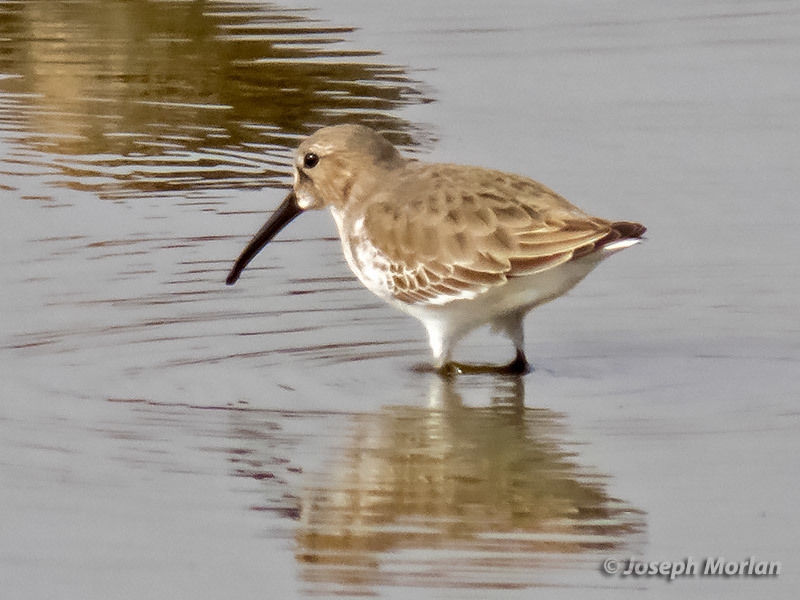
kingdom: Animalia
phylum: Chordata
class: Aves
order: Charadriiformes
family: Scolopacidae
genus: Calidris
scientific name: Calidris alpina
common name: Dunlin
